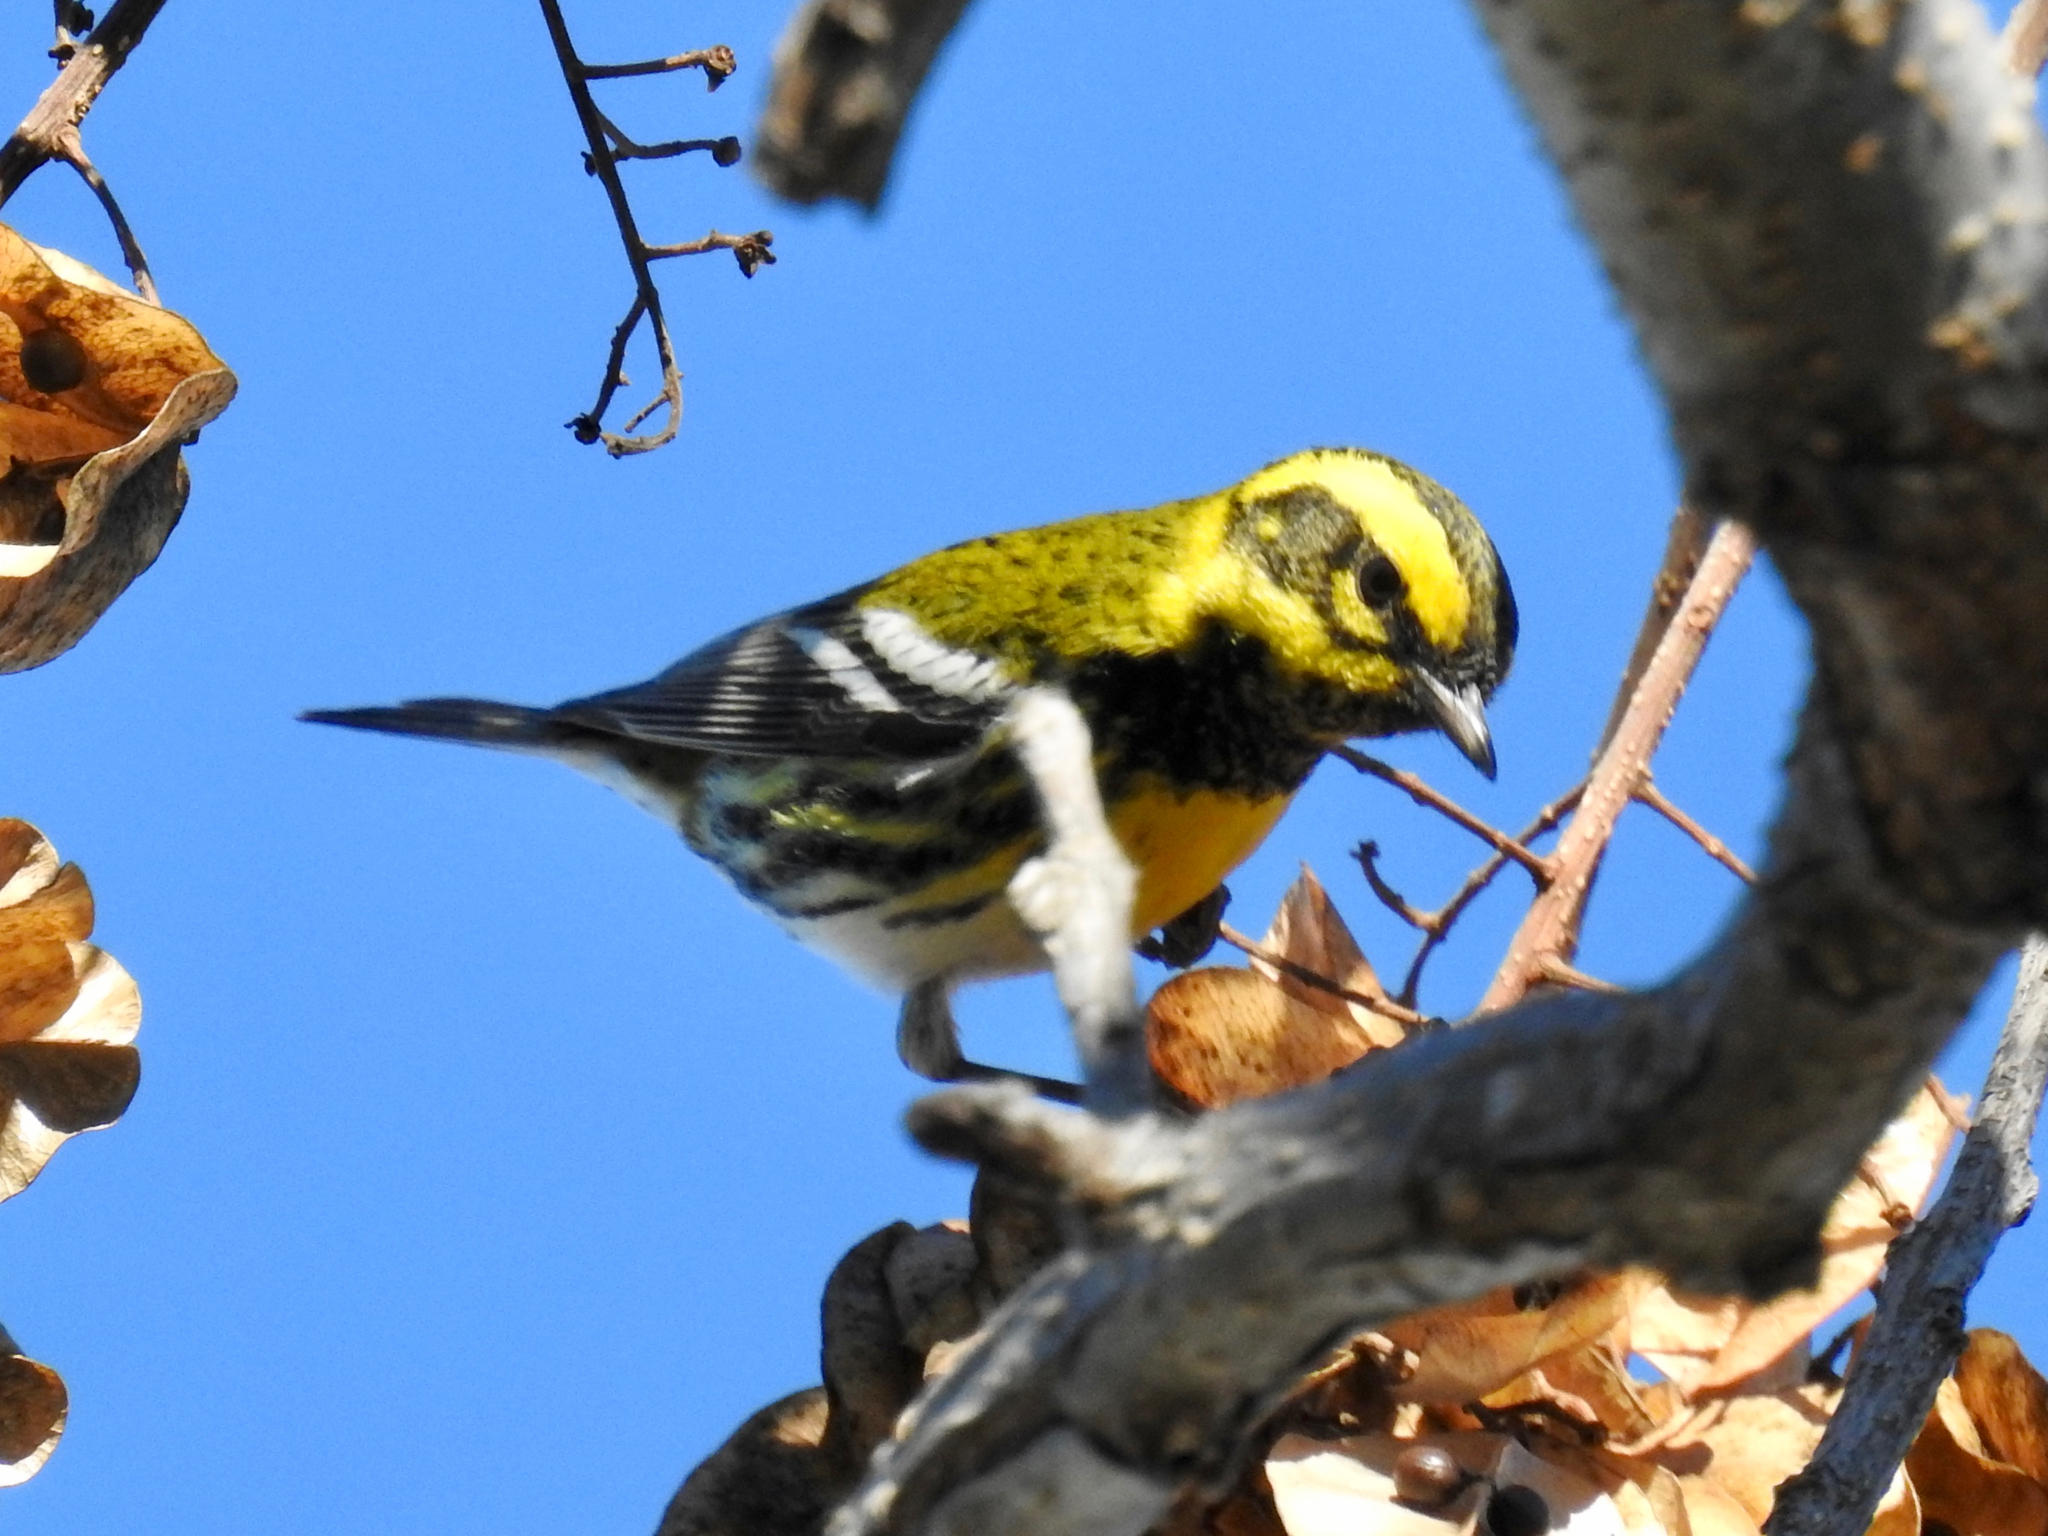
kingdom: Animalia
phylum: Chordata
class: Aves
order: Passeriformes
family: Parulidae
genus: Setophaga
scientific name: Setophaga townsendi
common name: Townsend's warbler
